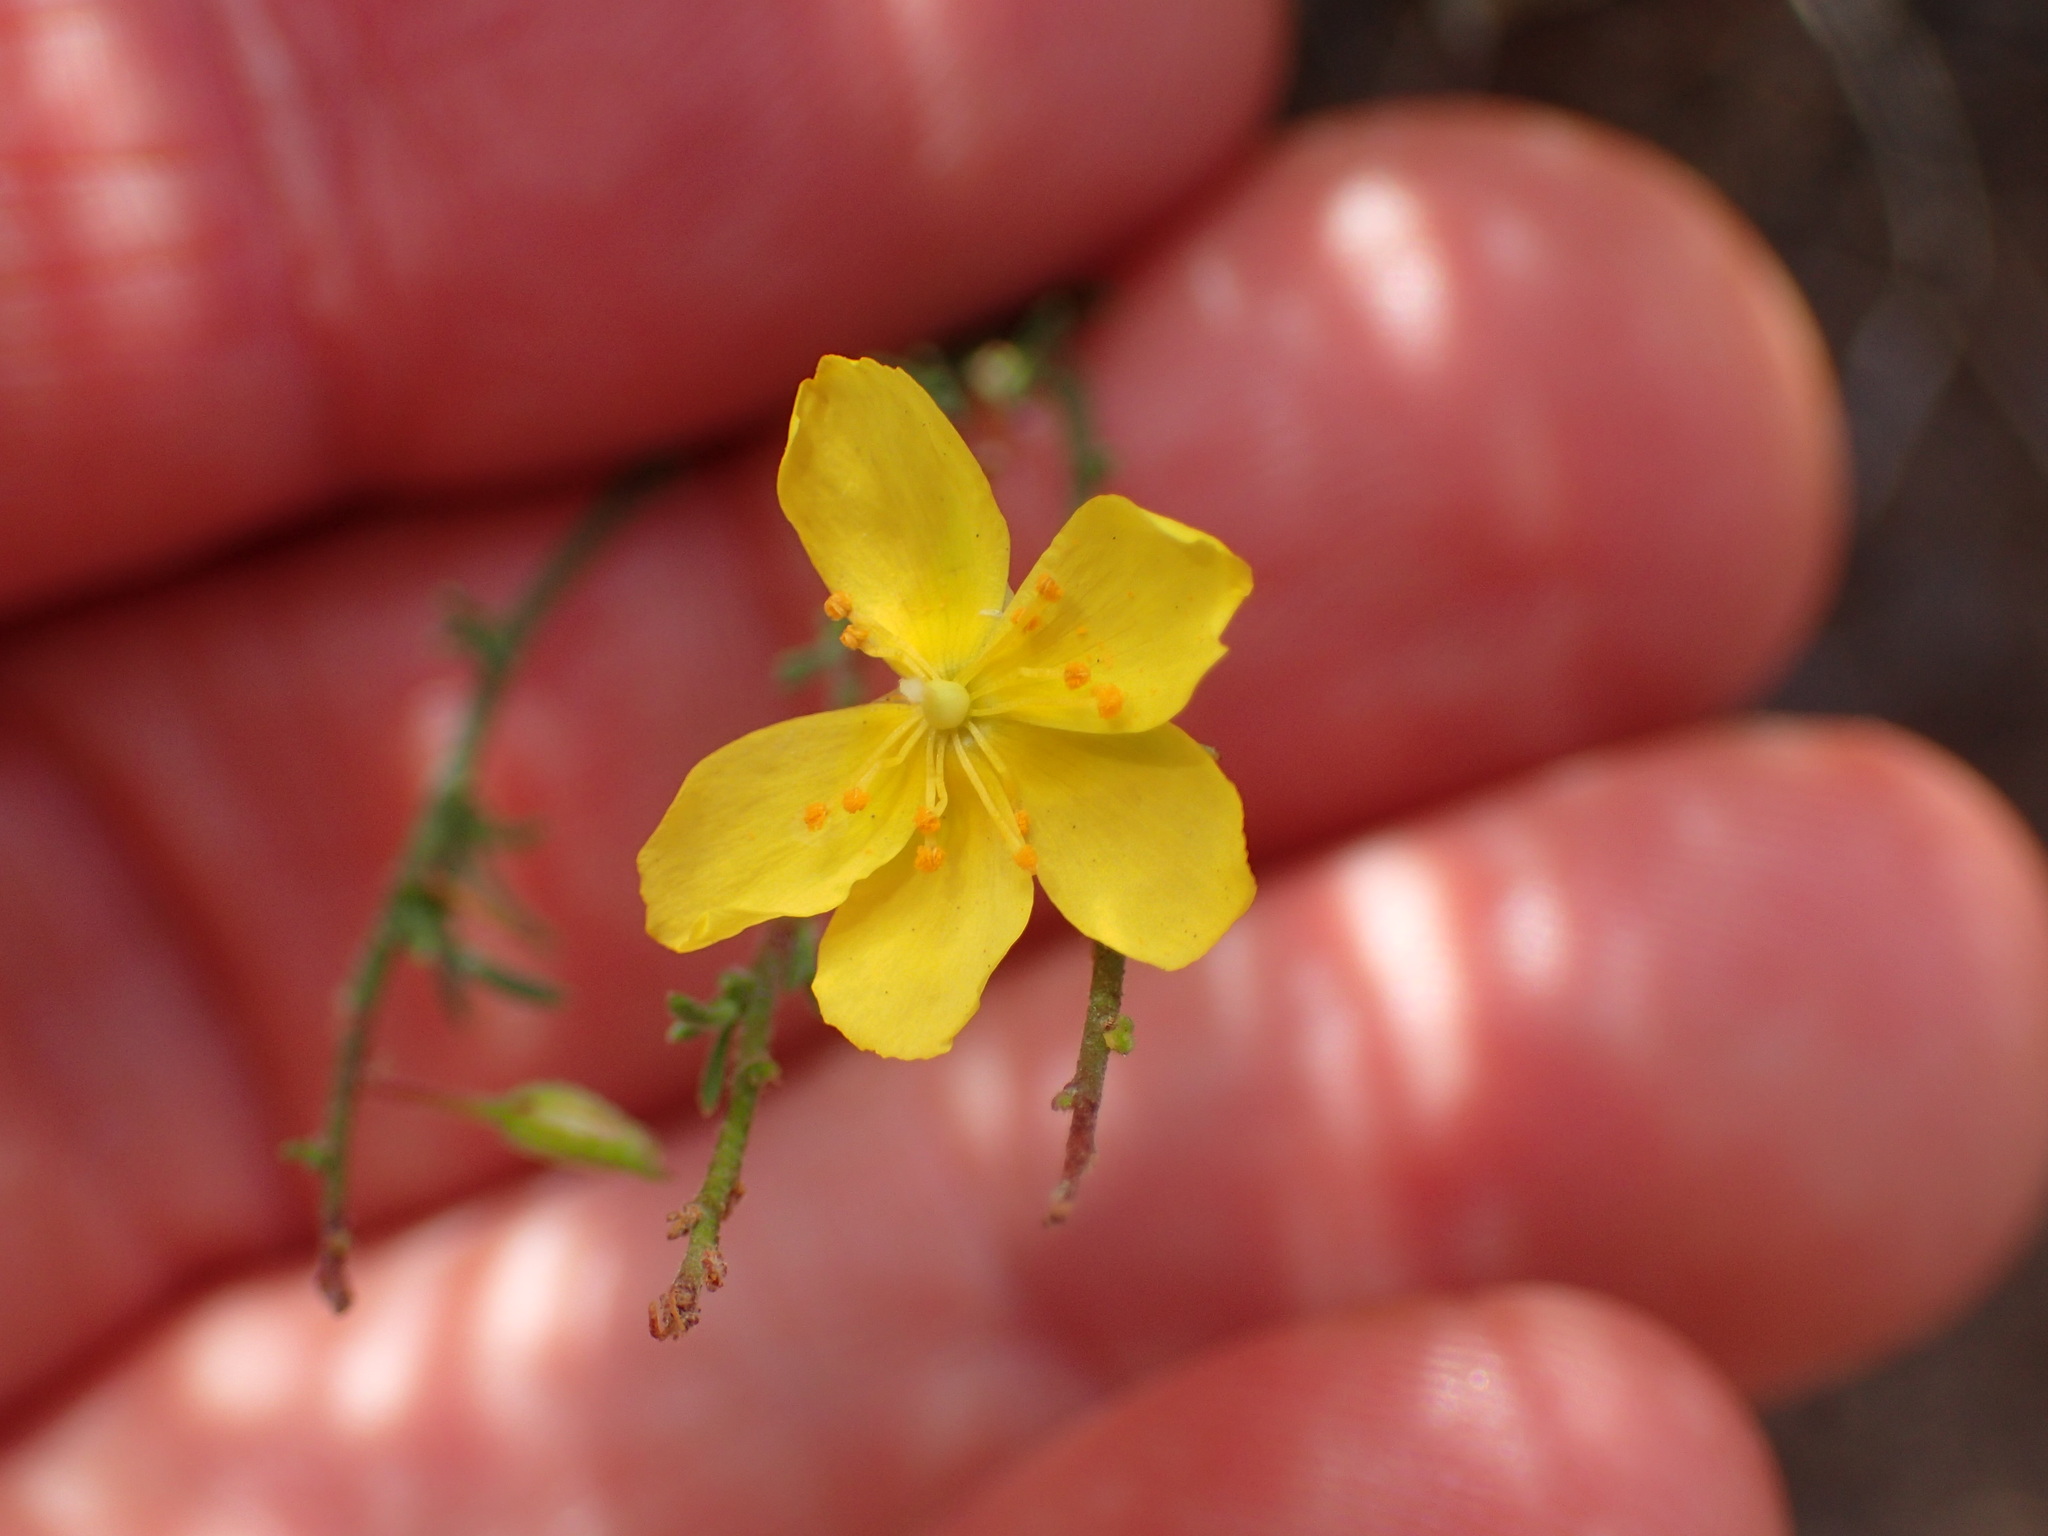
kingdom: Plantae
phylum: Tracheophyta
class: Magnoliopsida
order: Malvales
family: Cistaceae
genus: Crocanthemum
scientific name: Crocanthemum scoparium
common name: Broom-rose
